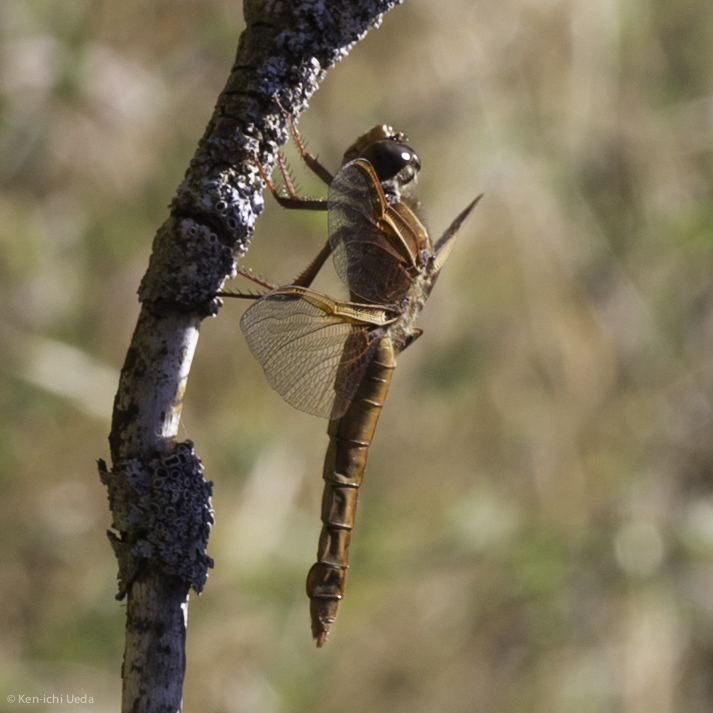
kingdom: Animalia
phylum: Arthropoda
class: Insecta
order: Odonata
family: Libellulidae
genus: Libellula
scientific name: Libellula saturata
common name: Flame skimmer
